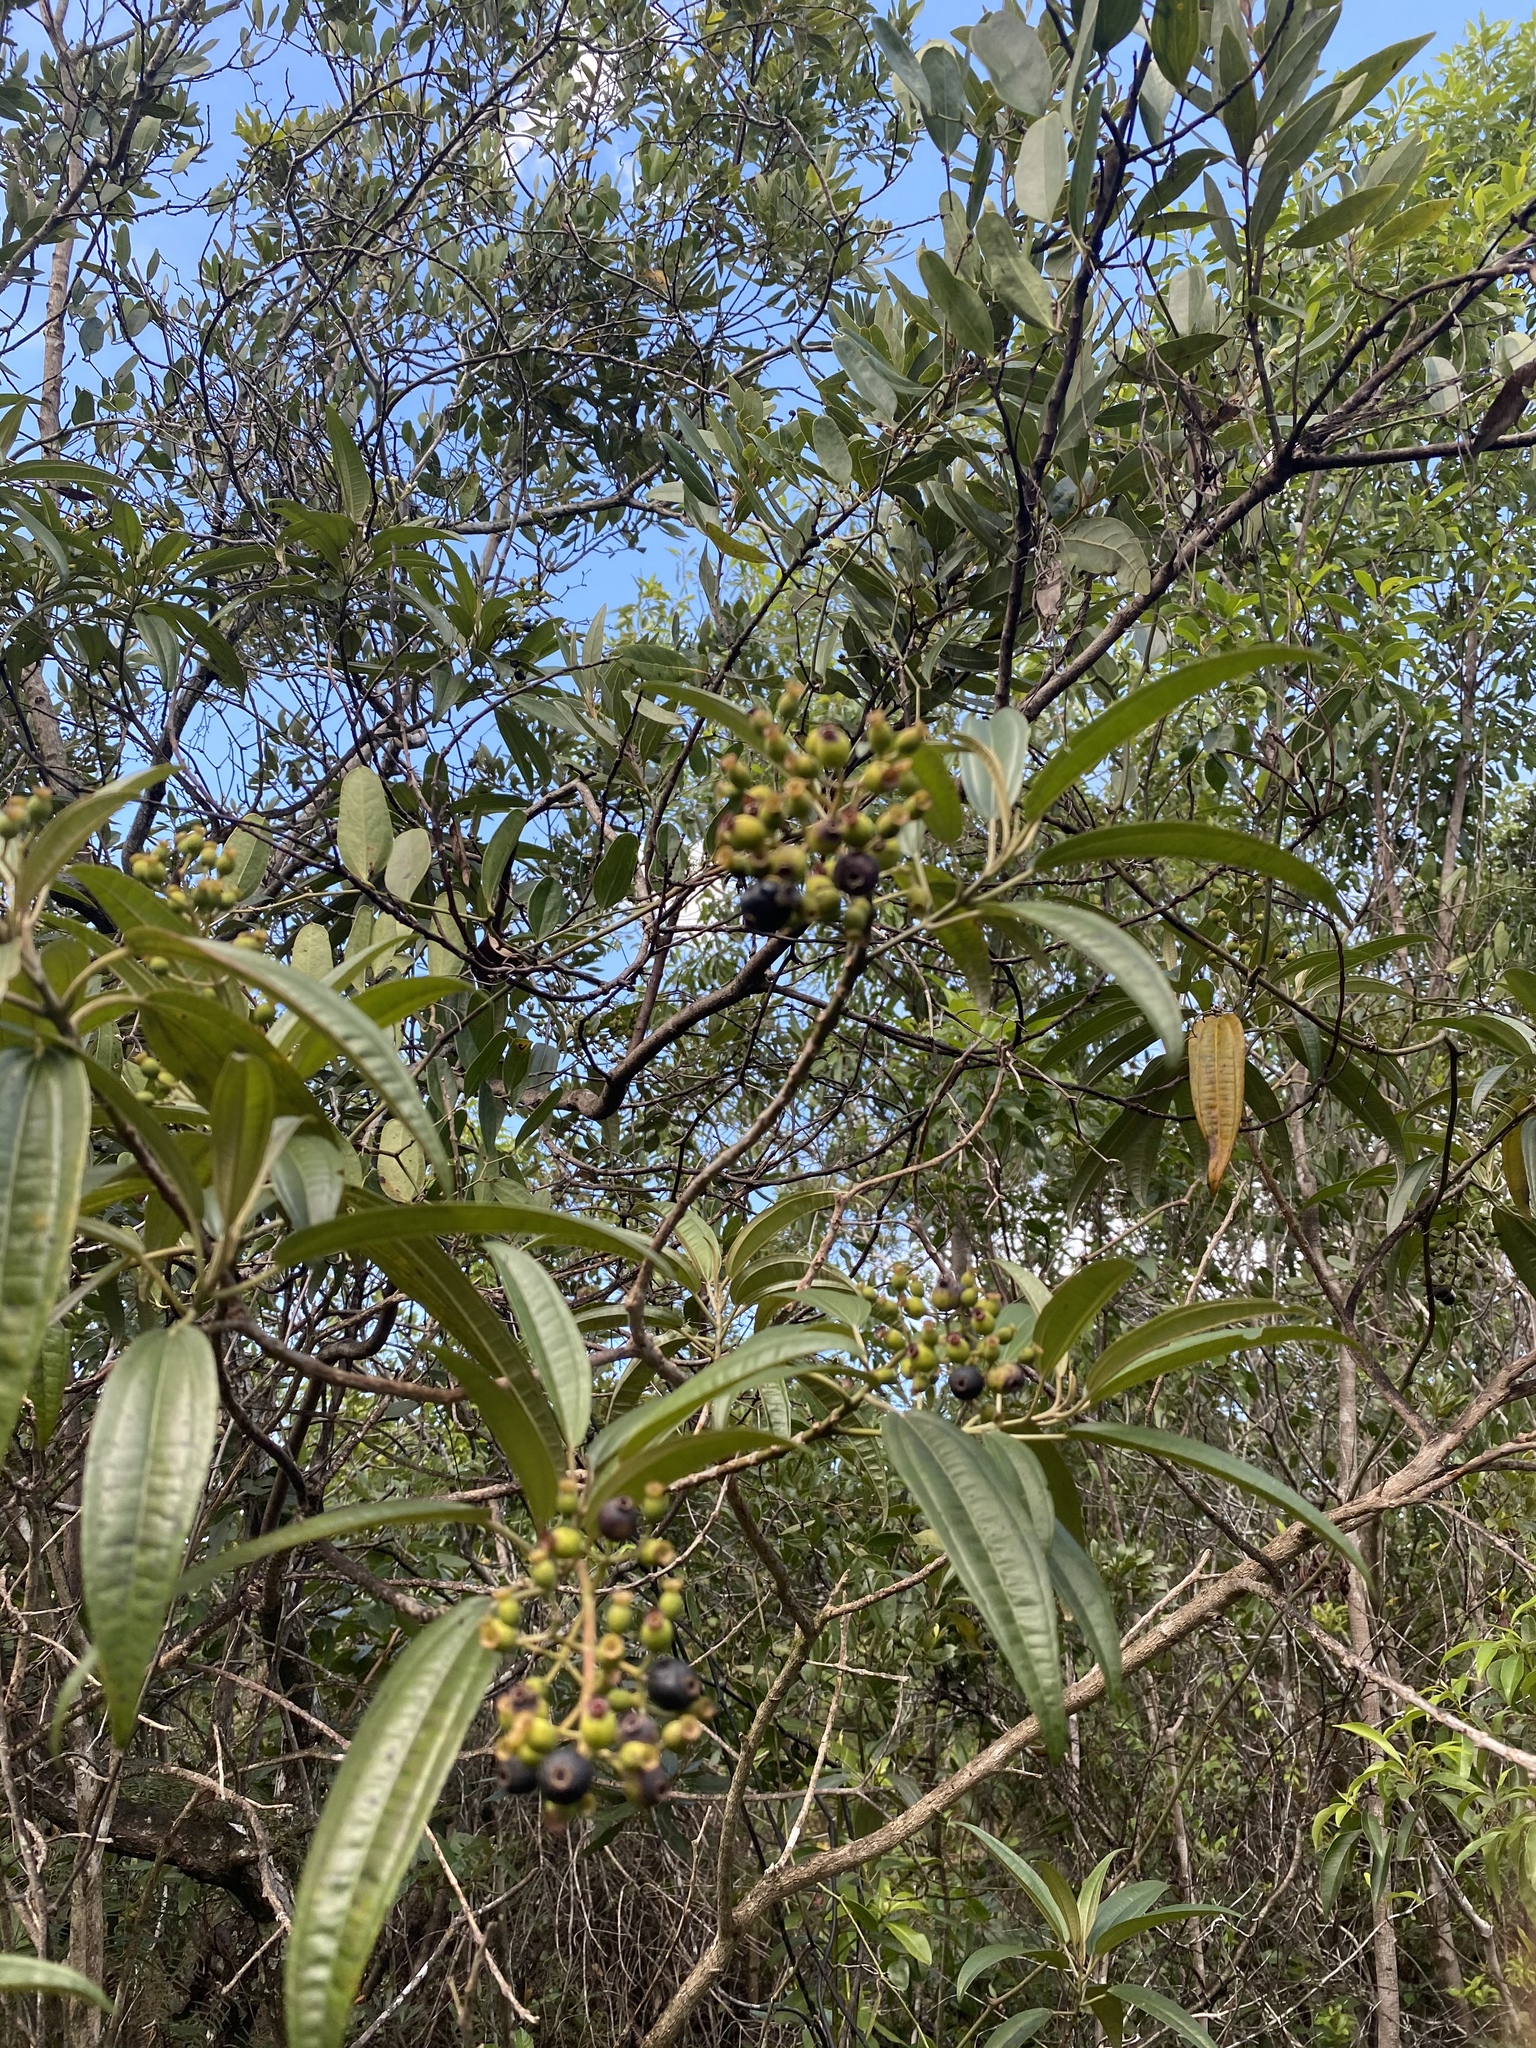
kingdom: Plantae
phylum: Tracheophyta
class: Magnoliopsida
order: Myrtales
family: Melastomataceae
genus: Miconia
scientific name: Miconia bicolor
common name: Johnnyberry
